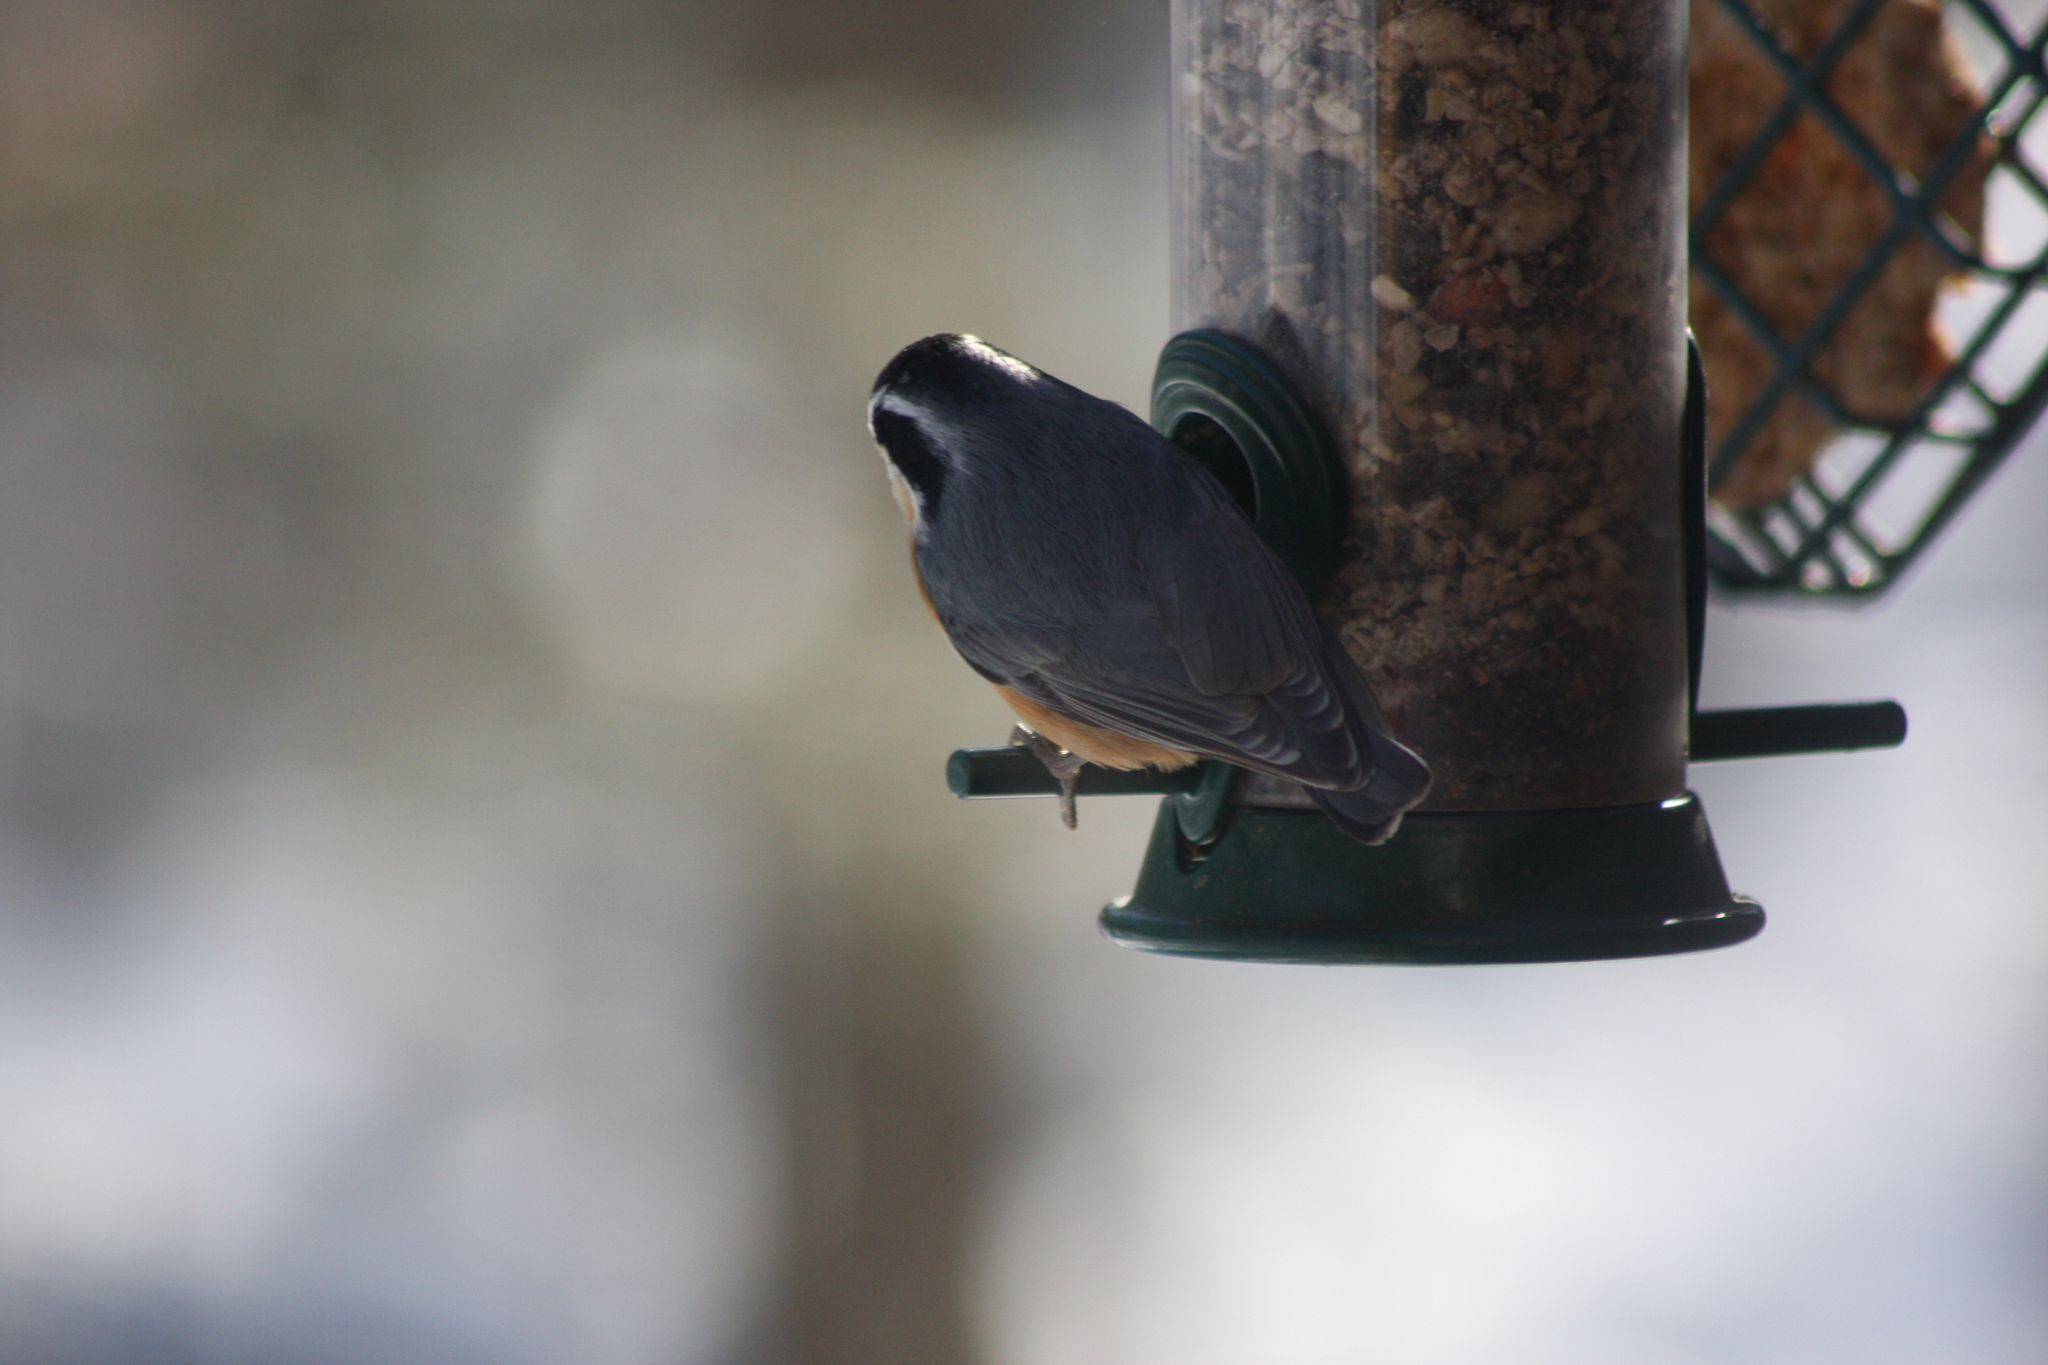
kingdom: Animalia
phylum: Chordata
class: Aves
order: Passeriformes
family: Sittidae
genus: Sitta
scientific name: Sitta canadensis
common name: Red-breasted nuthatch
